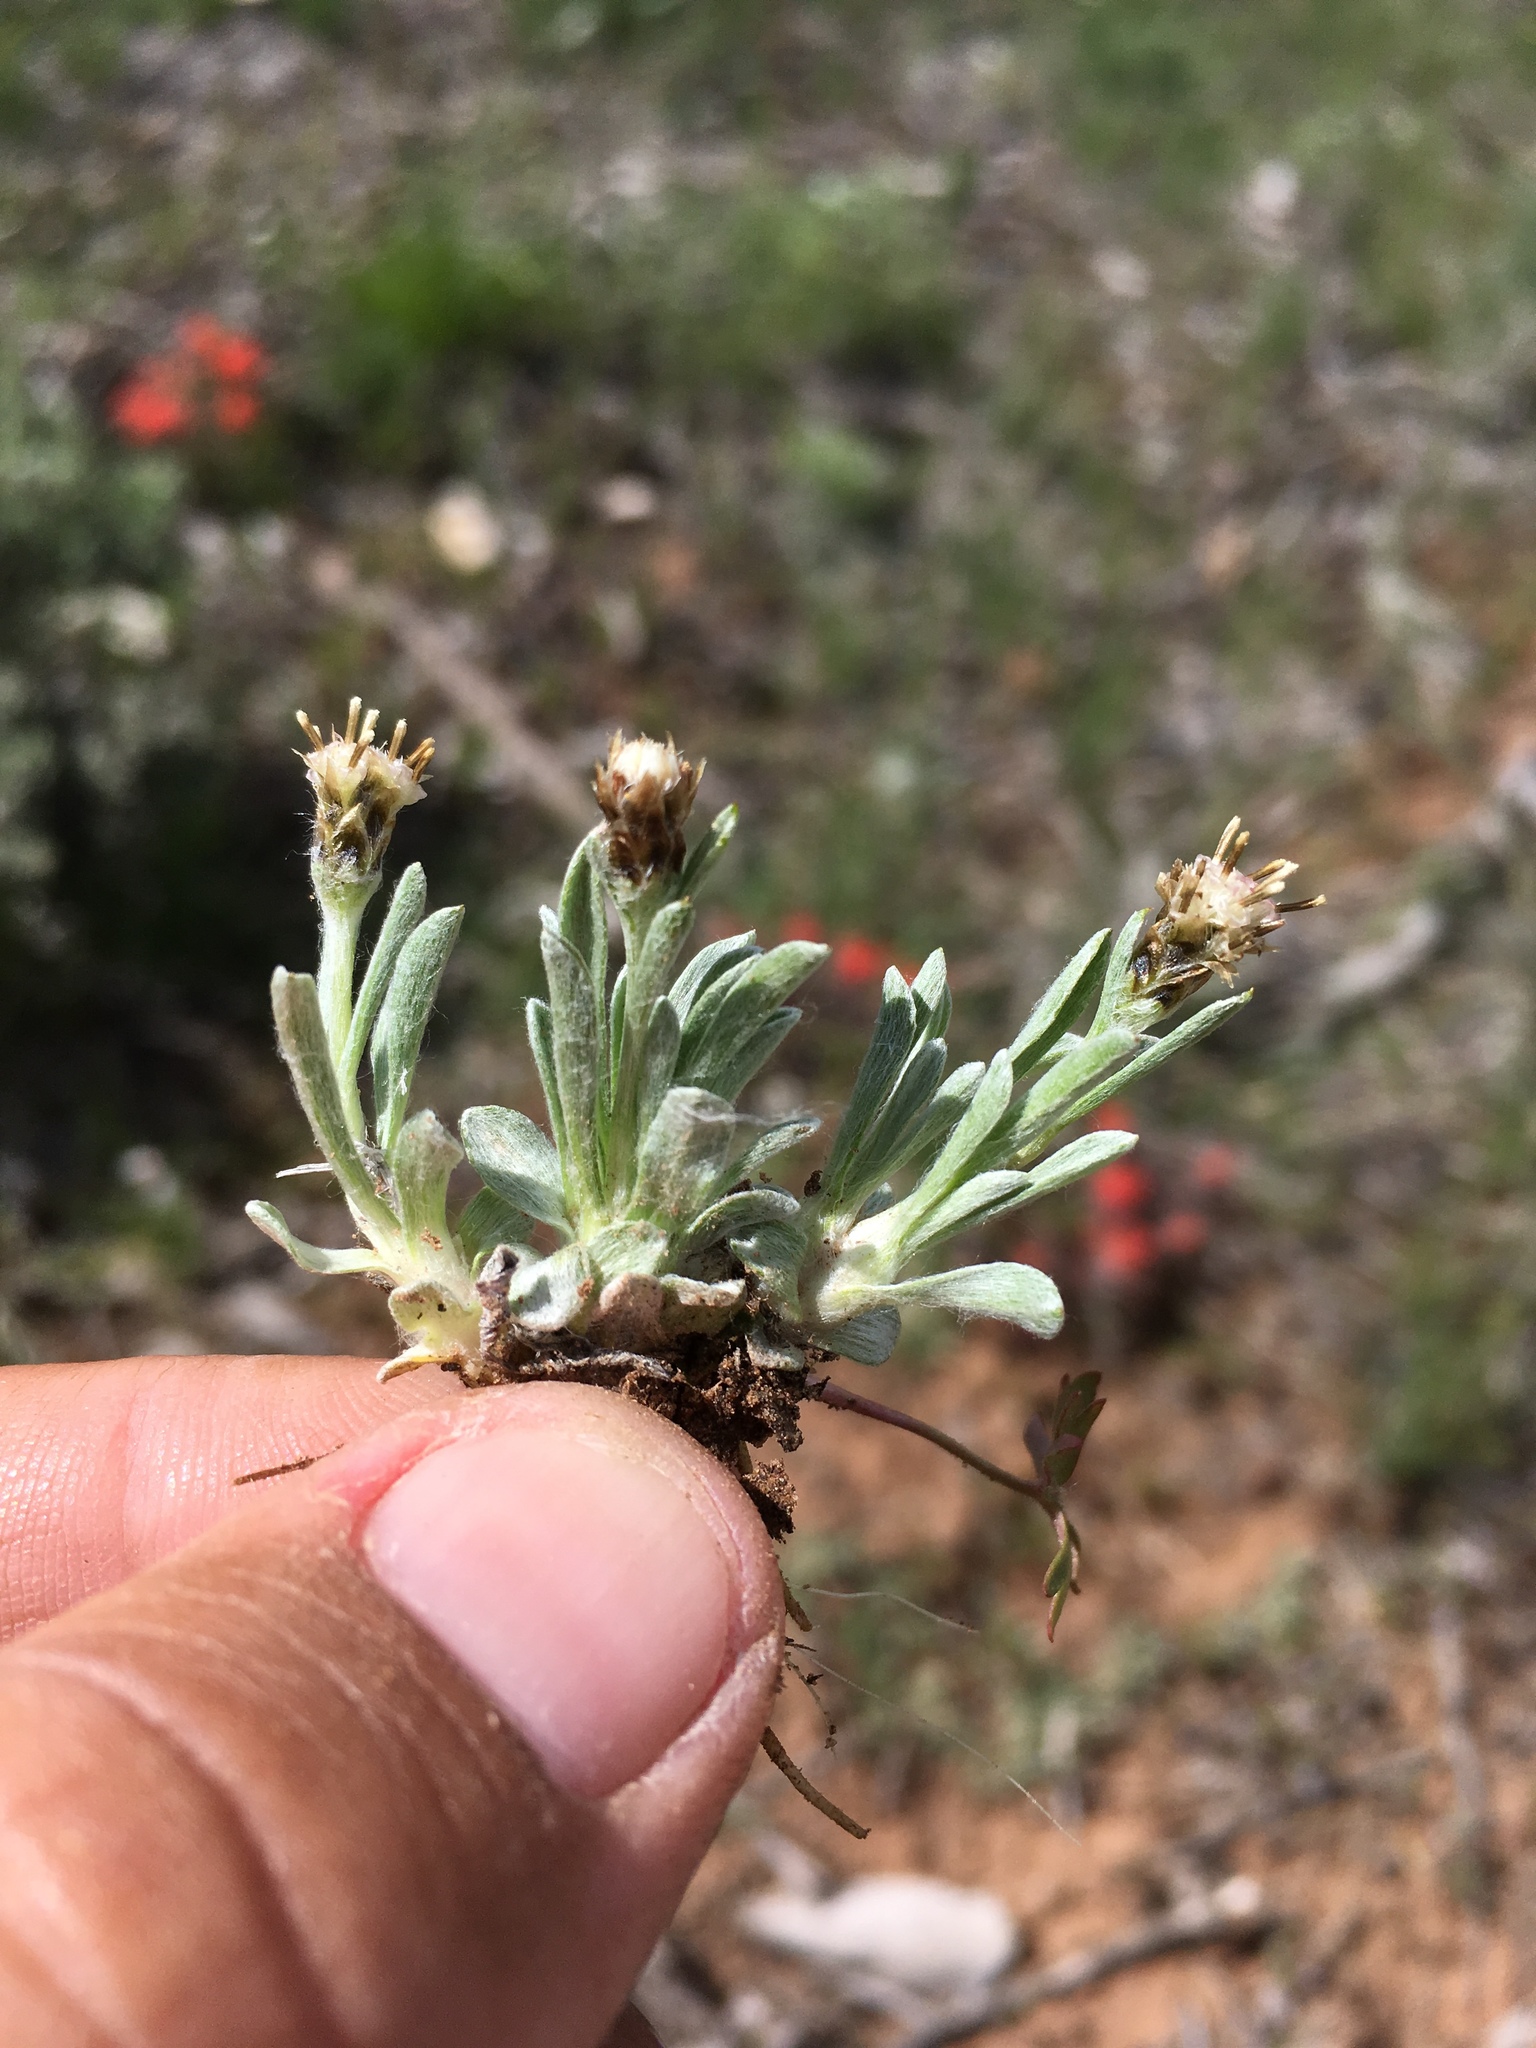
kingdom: Plantae
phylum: Tracheophyta
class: Magnoliopsida
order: Asterales
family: Asteraceae
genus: Antennaria
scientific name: Antennaria dimorpha
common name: Cushion pussytoes
